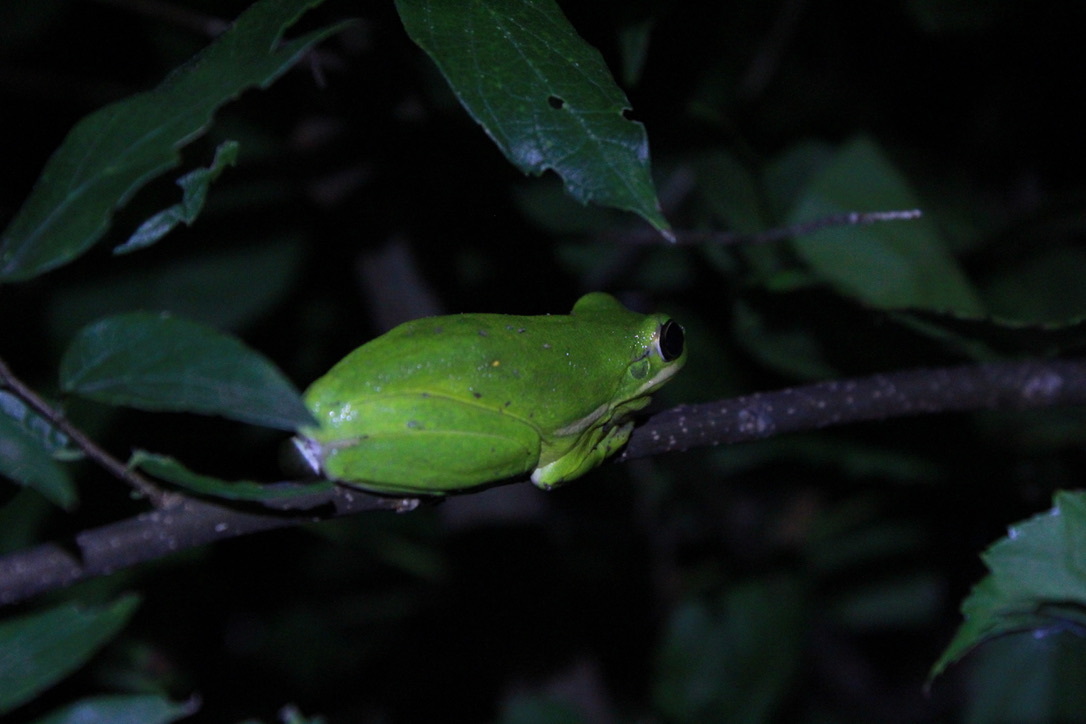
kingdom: Animalia
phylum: Chordata
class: Amphibia
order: Anura
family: Hylidae
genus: Dryophytes
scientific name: Dryophytes cinereus
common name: Green treefrog
